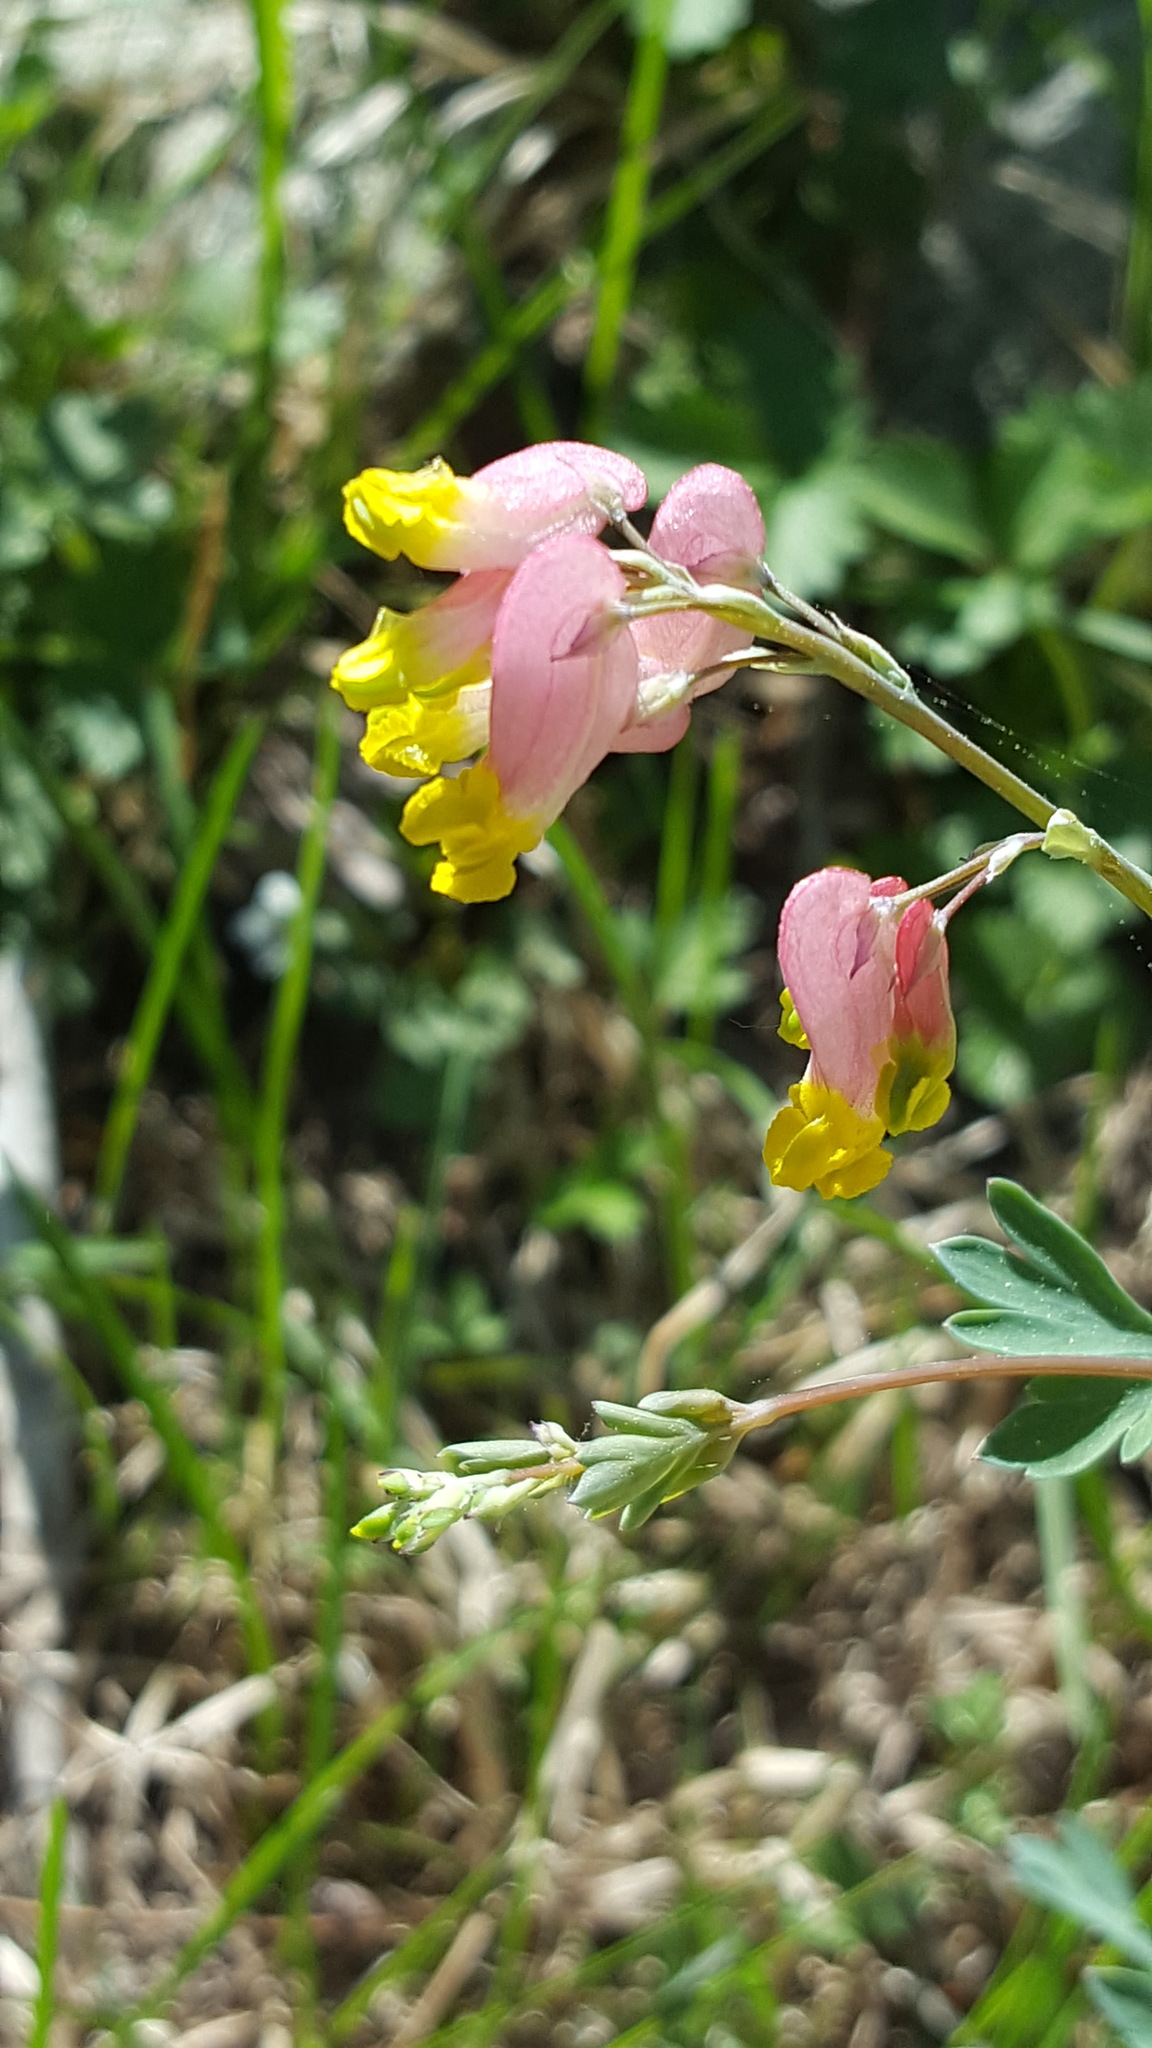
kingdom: Plantae
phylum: Tracheophyta
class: Magnoliopsida
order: Ranunculales
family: Papaveraceae
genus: Capnoides
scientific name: Capnoides sempervirens
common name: Rock harlequin
